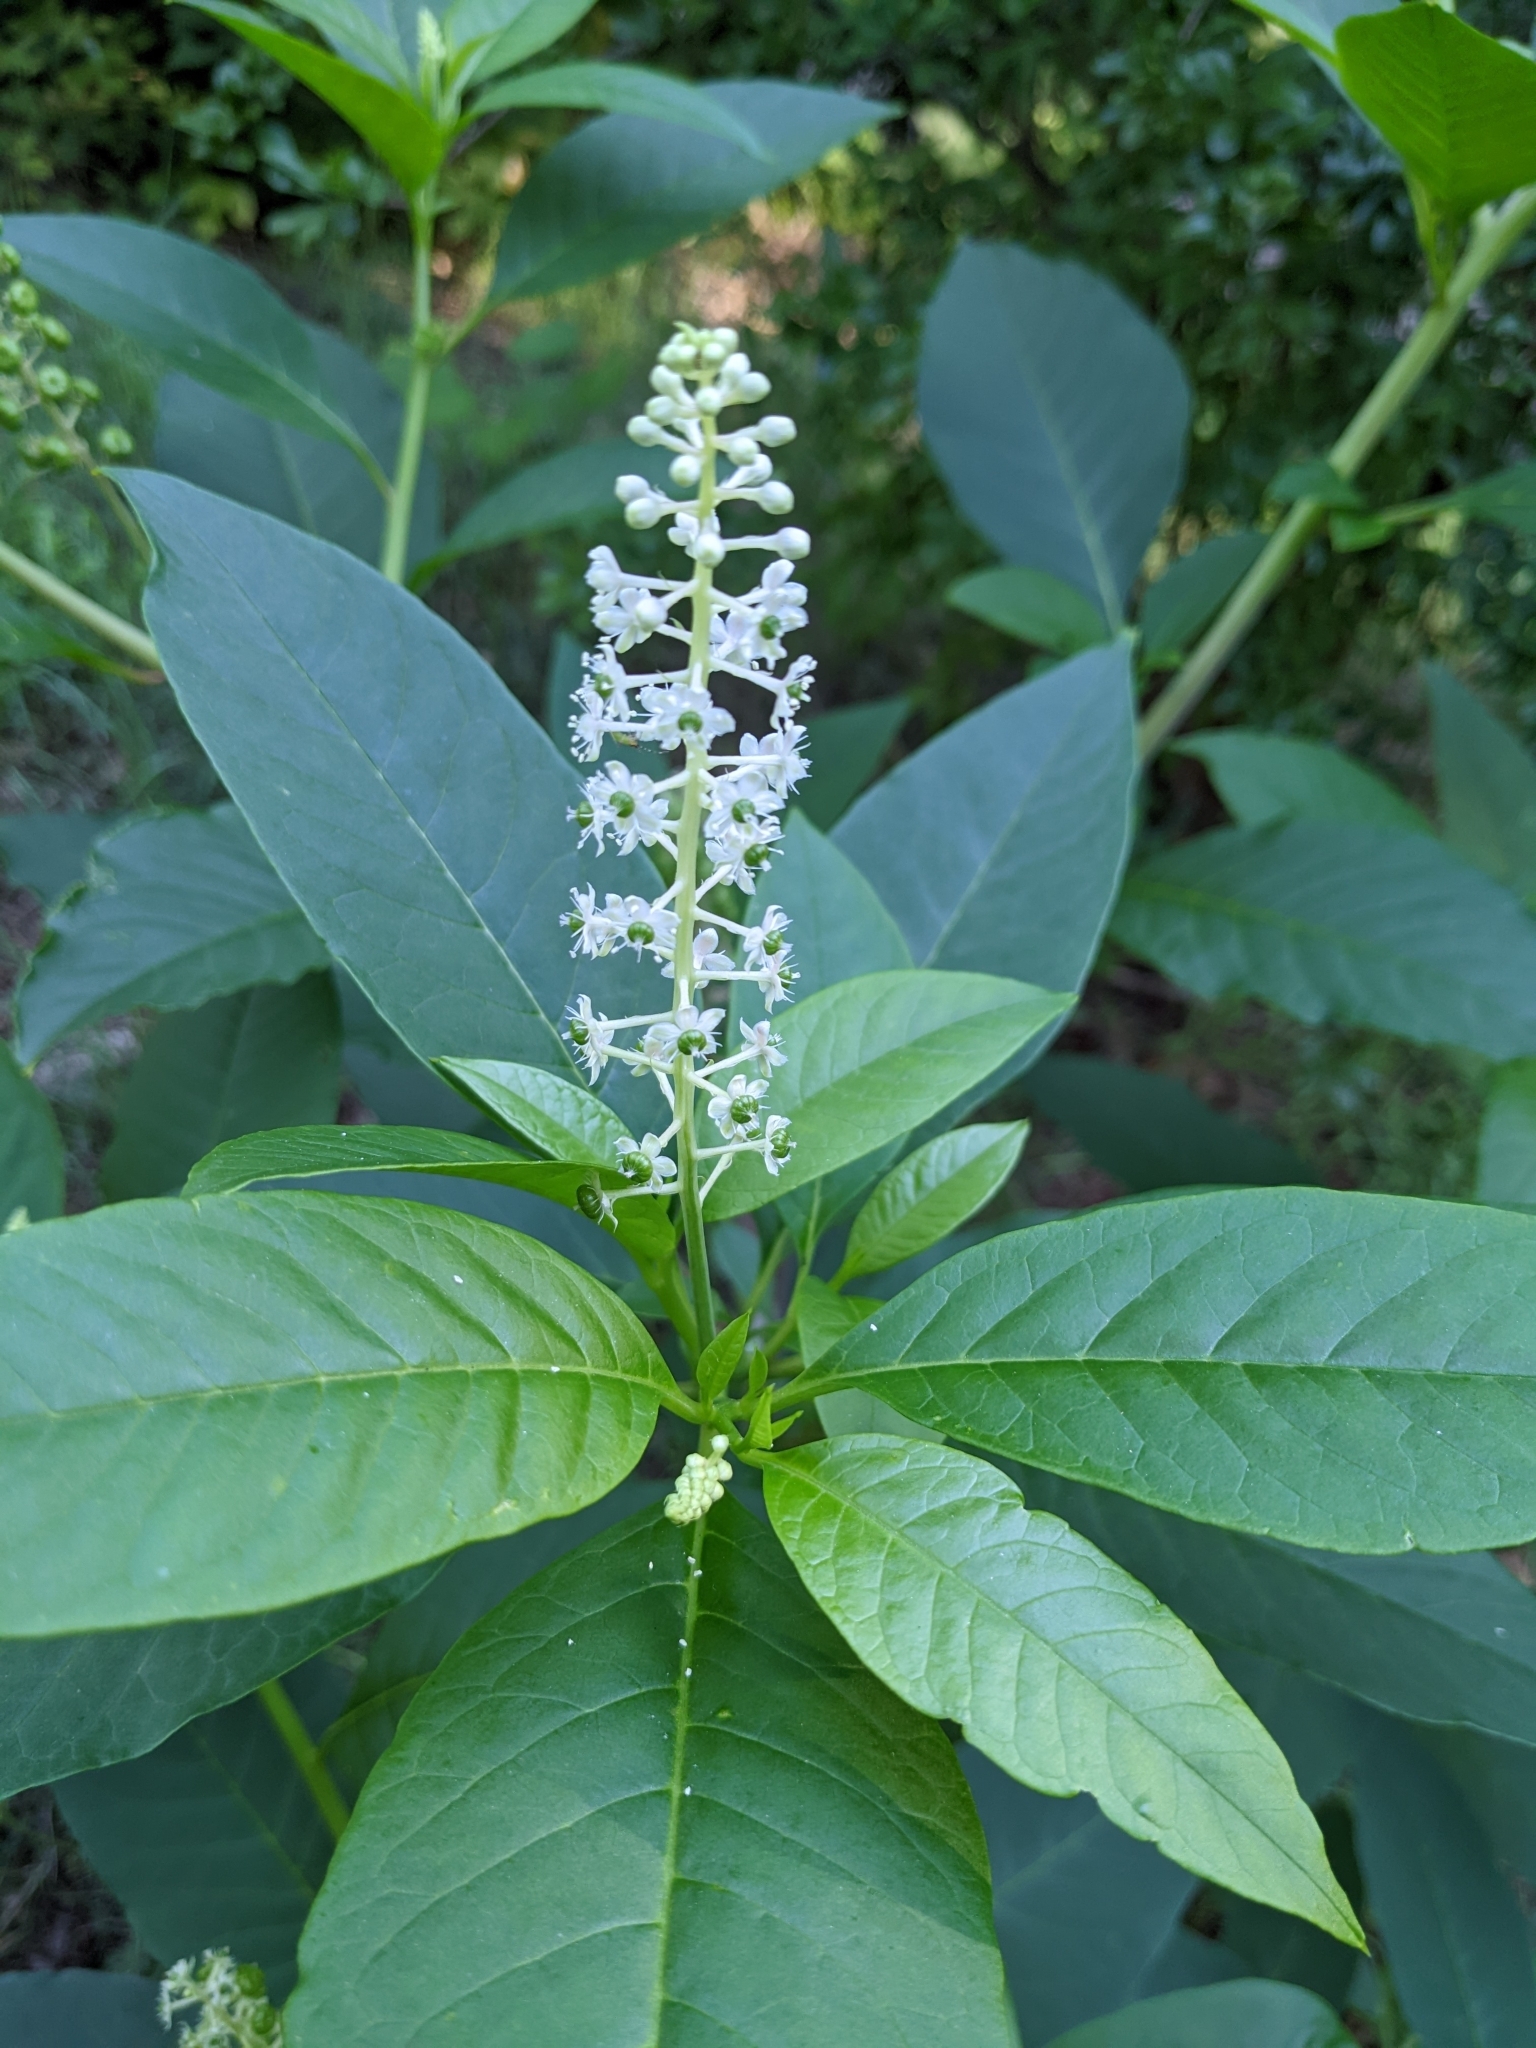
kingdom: Plantae
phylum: Tracheophyta
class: Magnoliopsida
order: Caryophyllales
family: Phytolaccaceae
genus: Phytolacca
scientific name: Phytolacca americana
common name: American pokeweed
